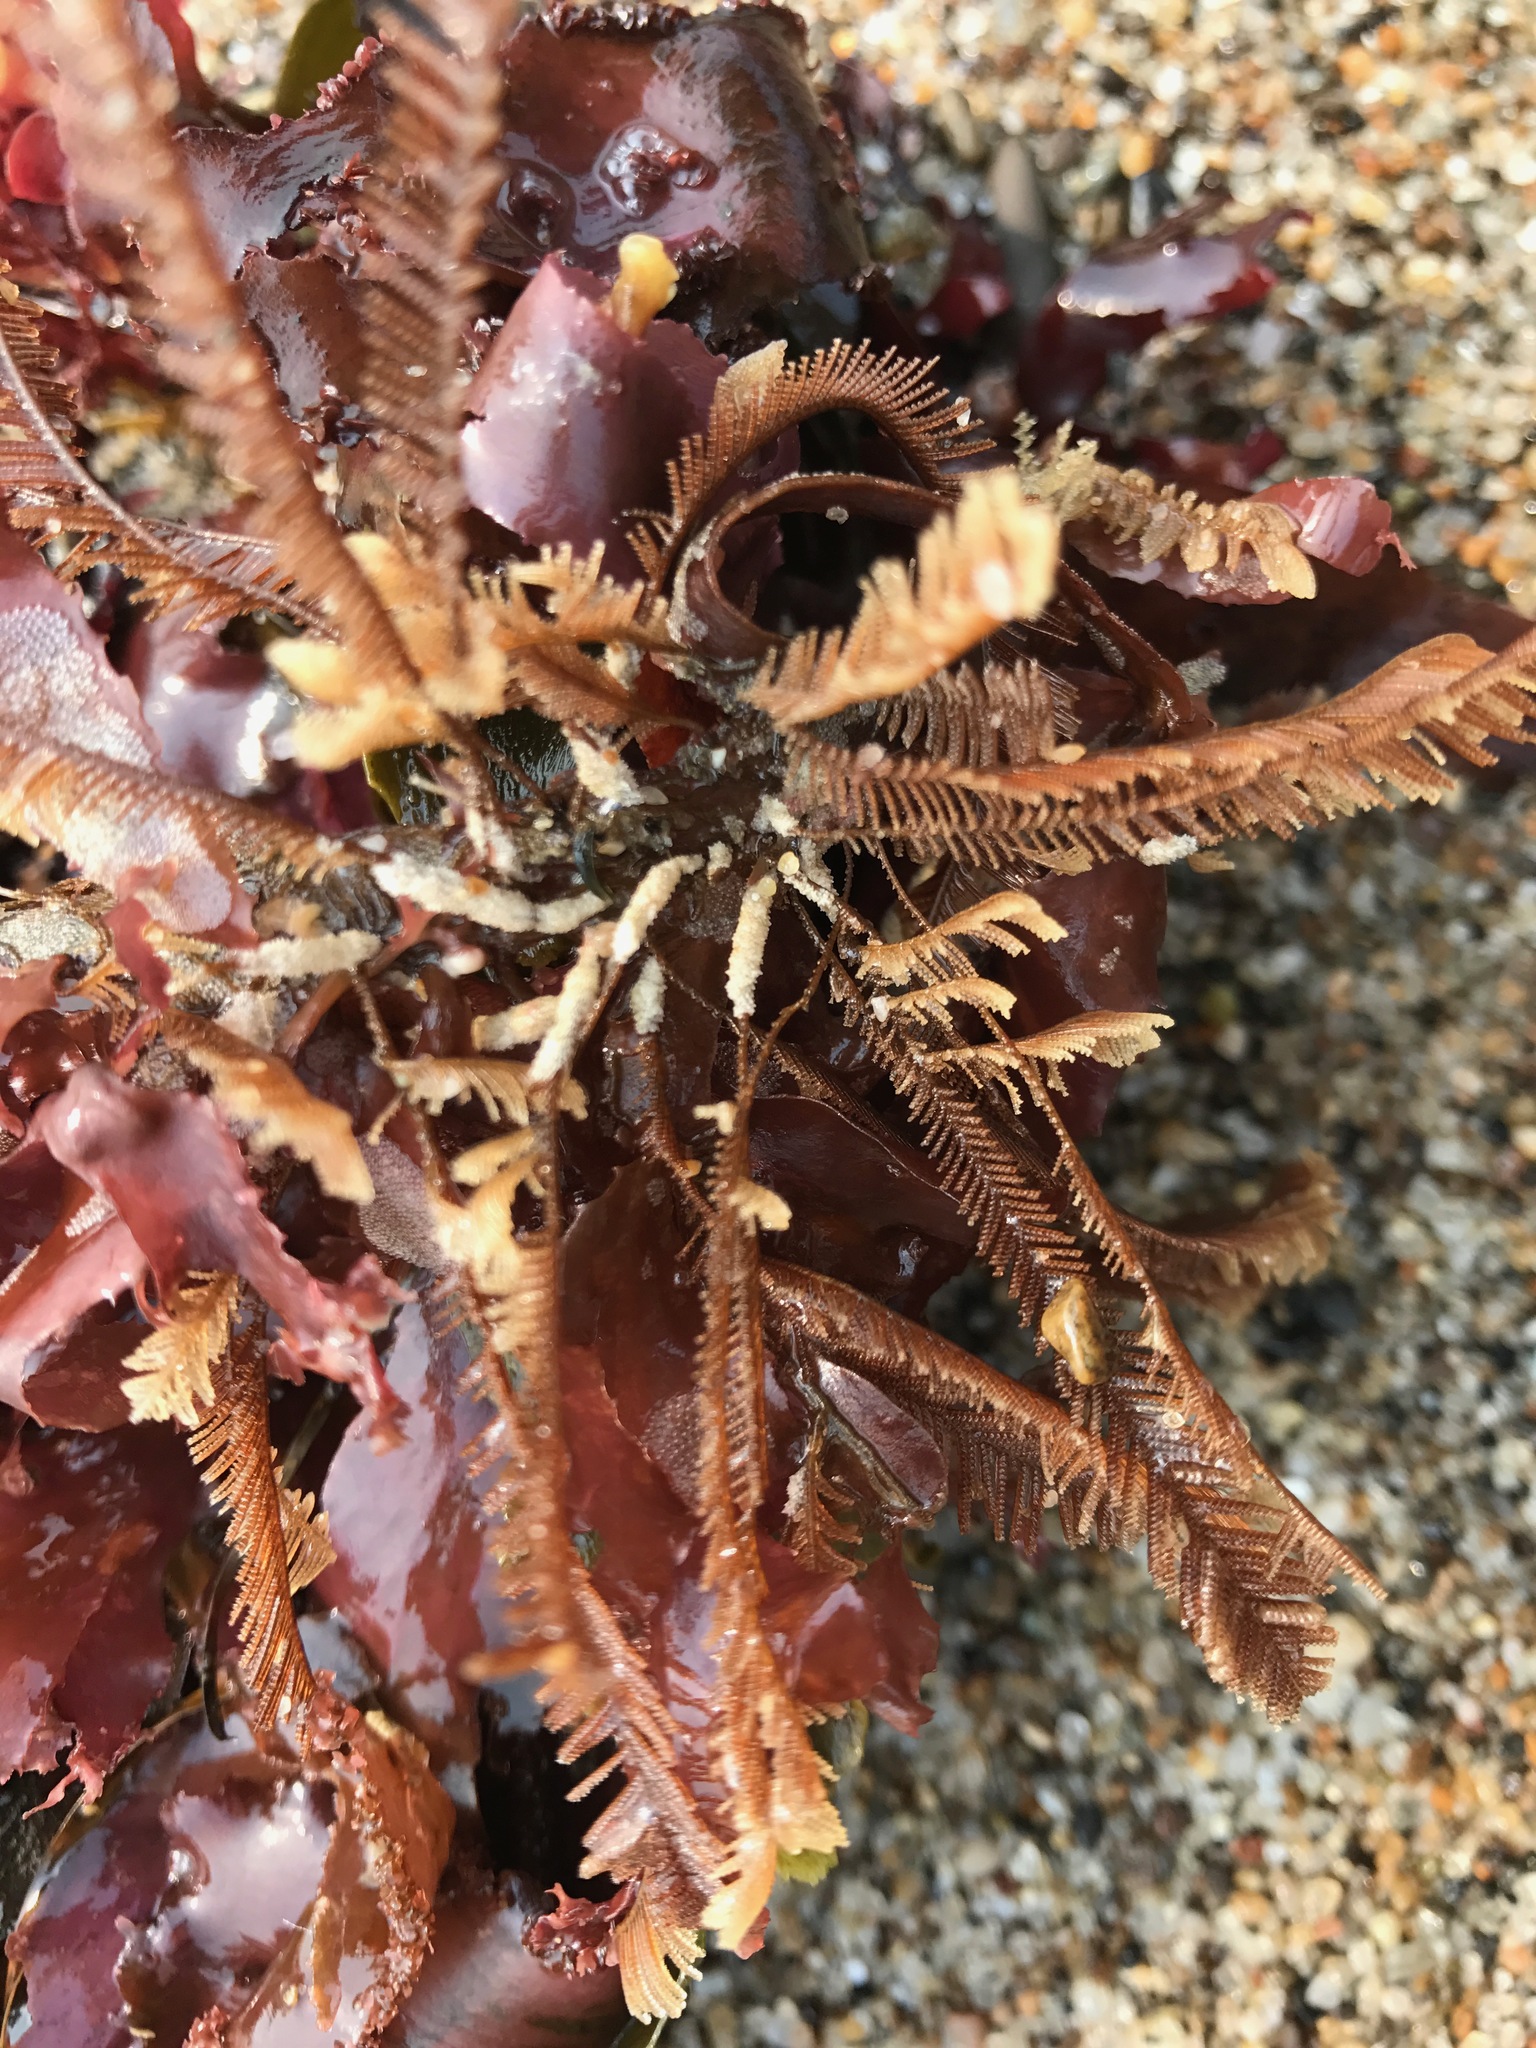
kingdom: Animalia
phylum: Cnidaria
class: Hydrozoa
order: Leptothecata
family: Aglaopheniidae
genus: Aglaophenia
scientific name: Aglaophenia latirostris
